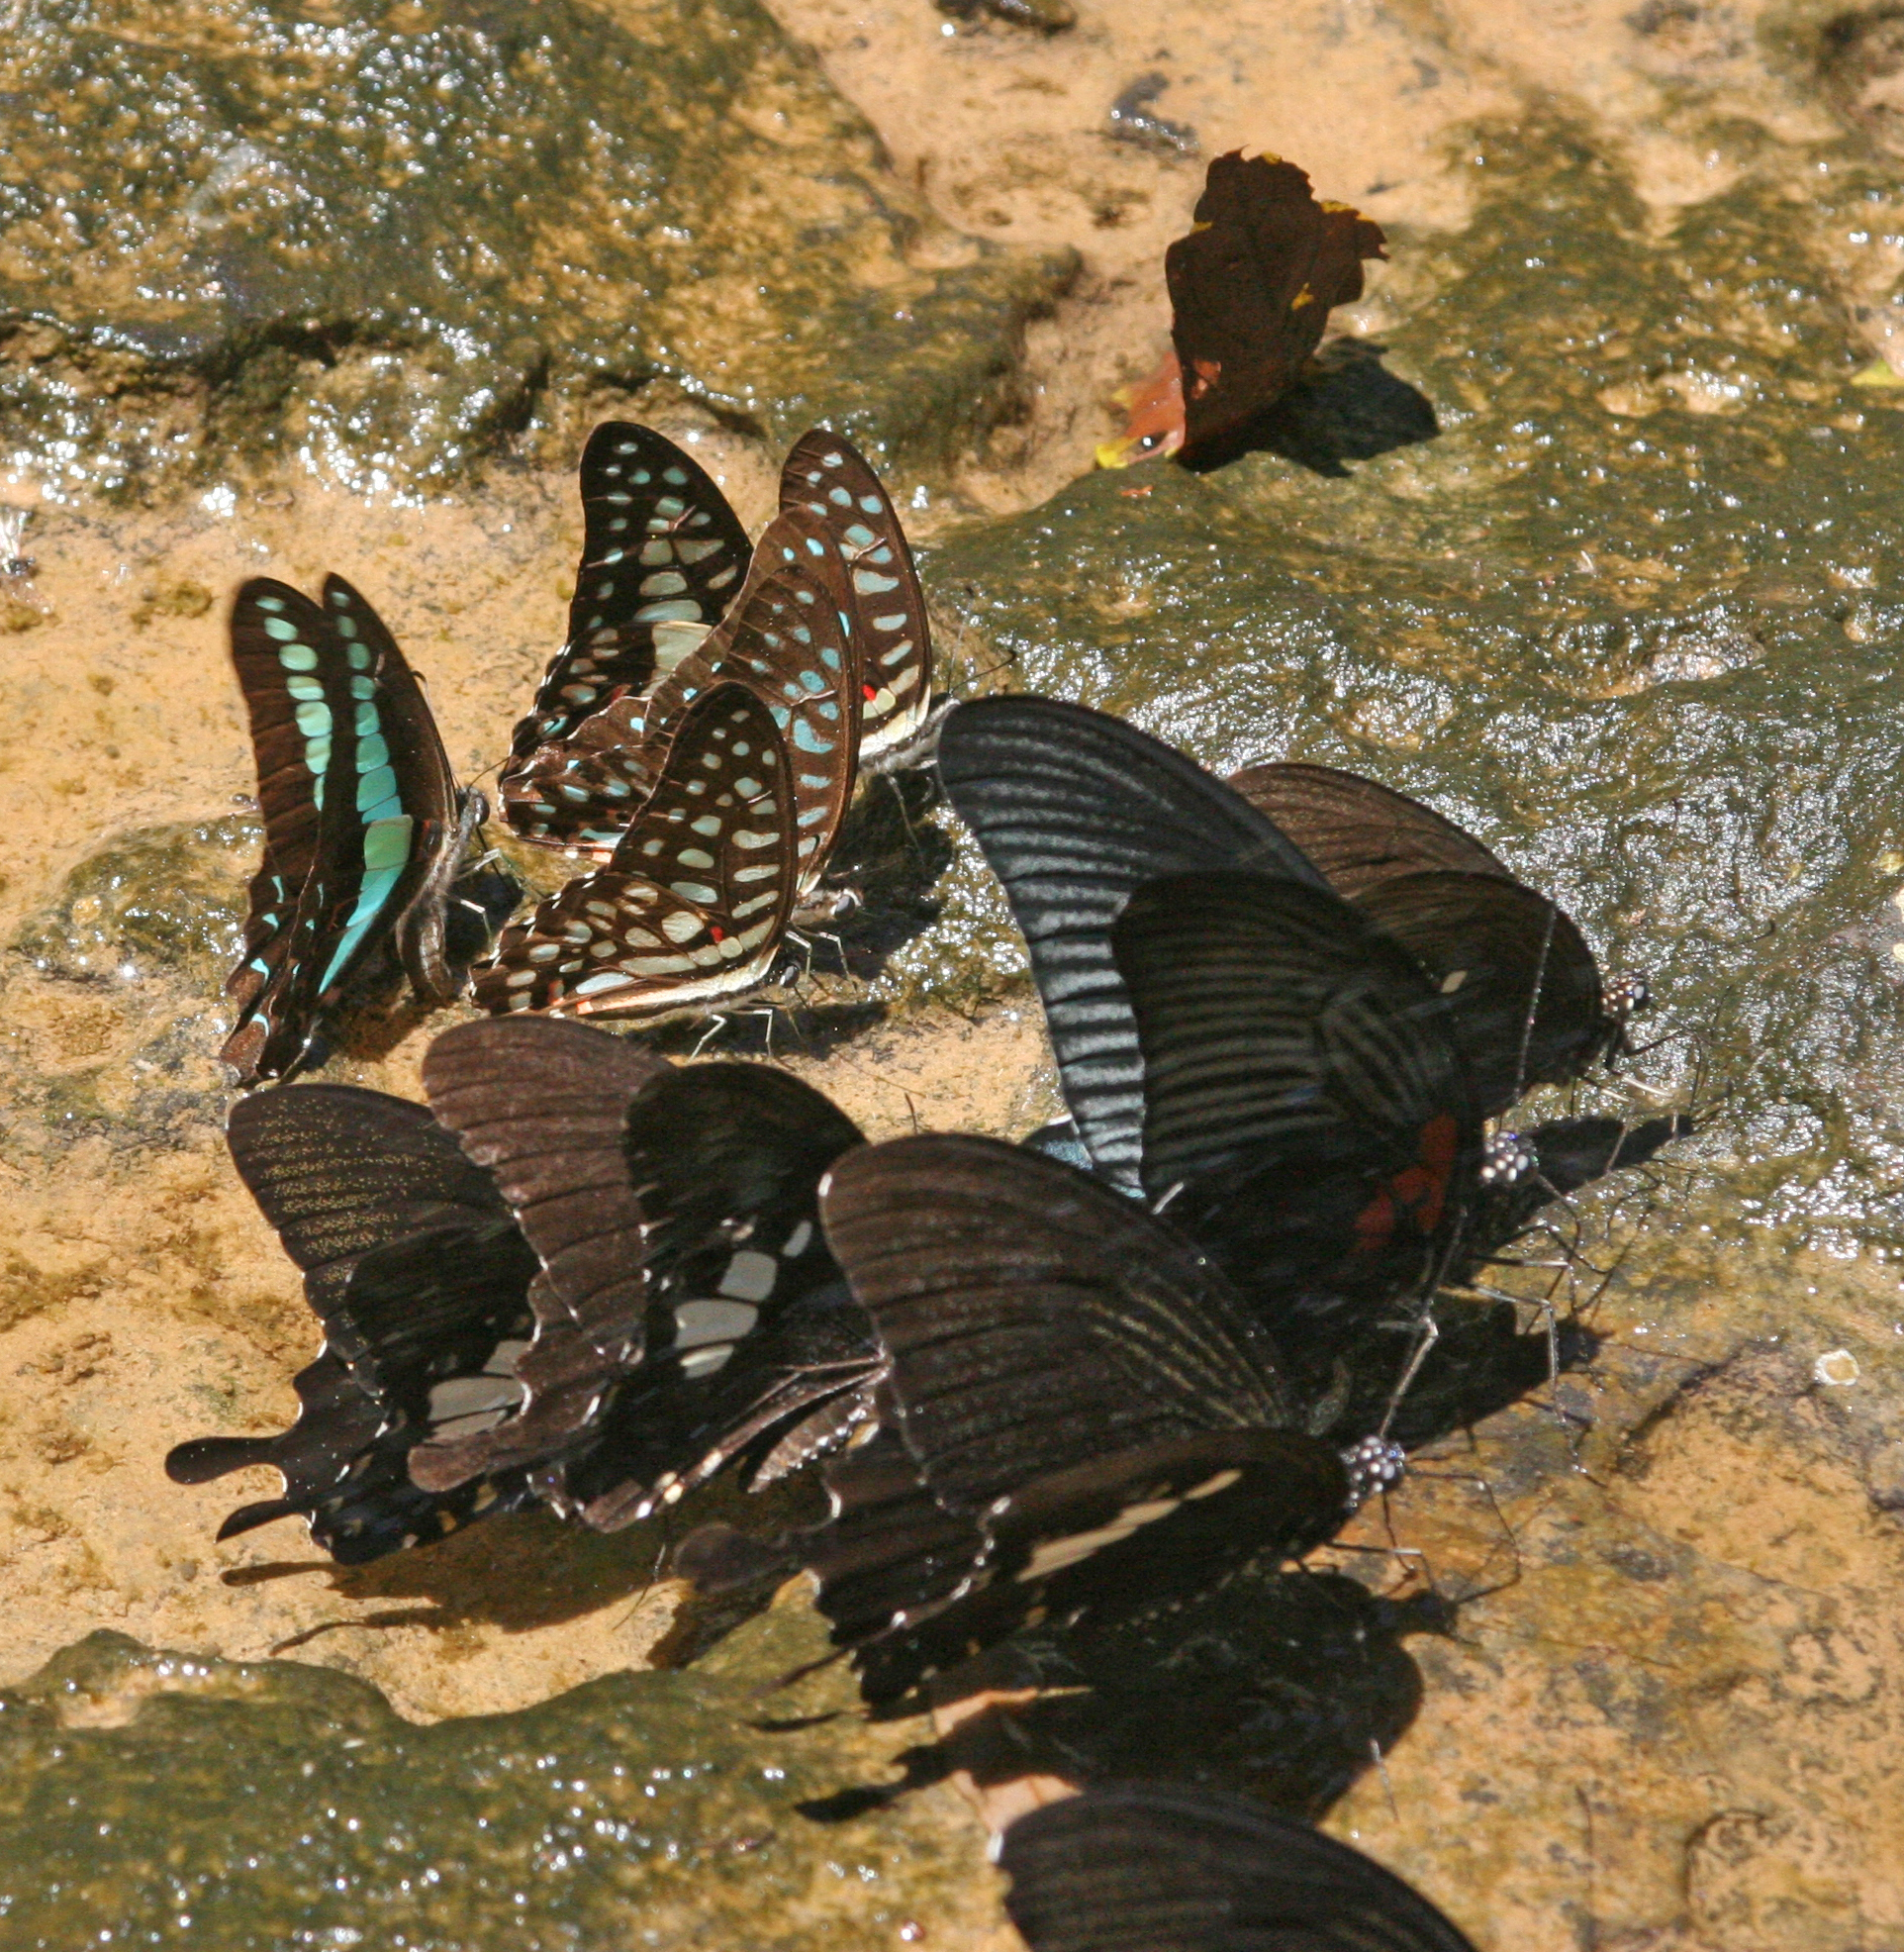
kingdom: Animalia
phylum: Arthropoda
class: Insecta
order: Lepidoptera
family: Papilionidae
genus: Papilio
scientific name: Papilio memnon
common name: Great mormon
